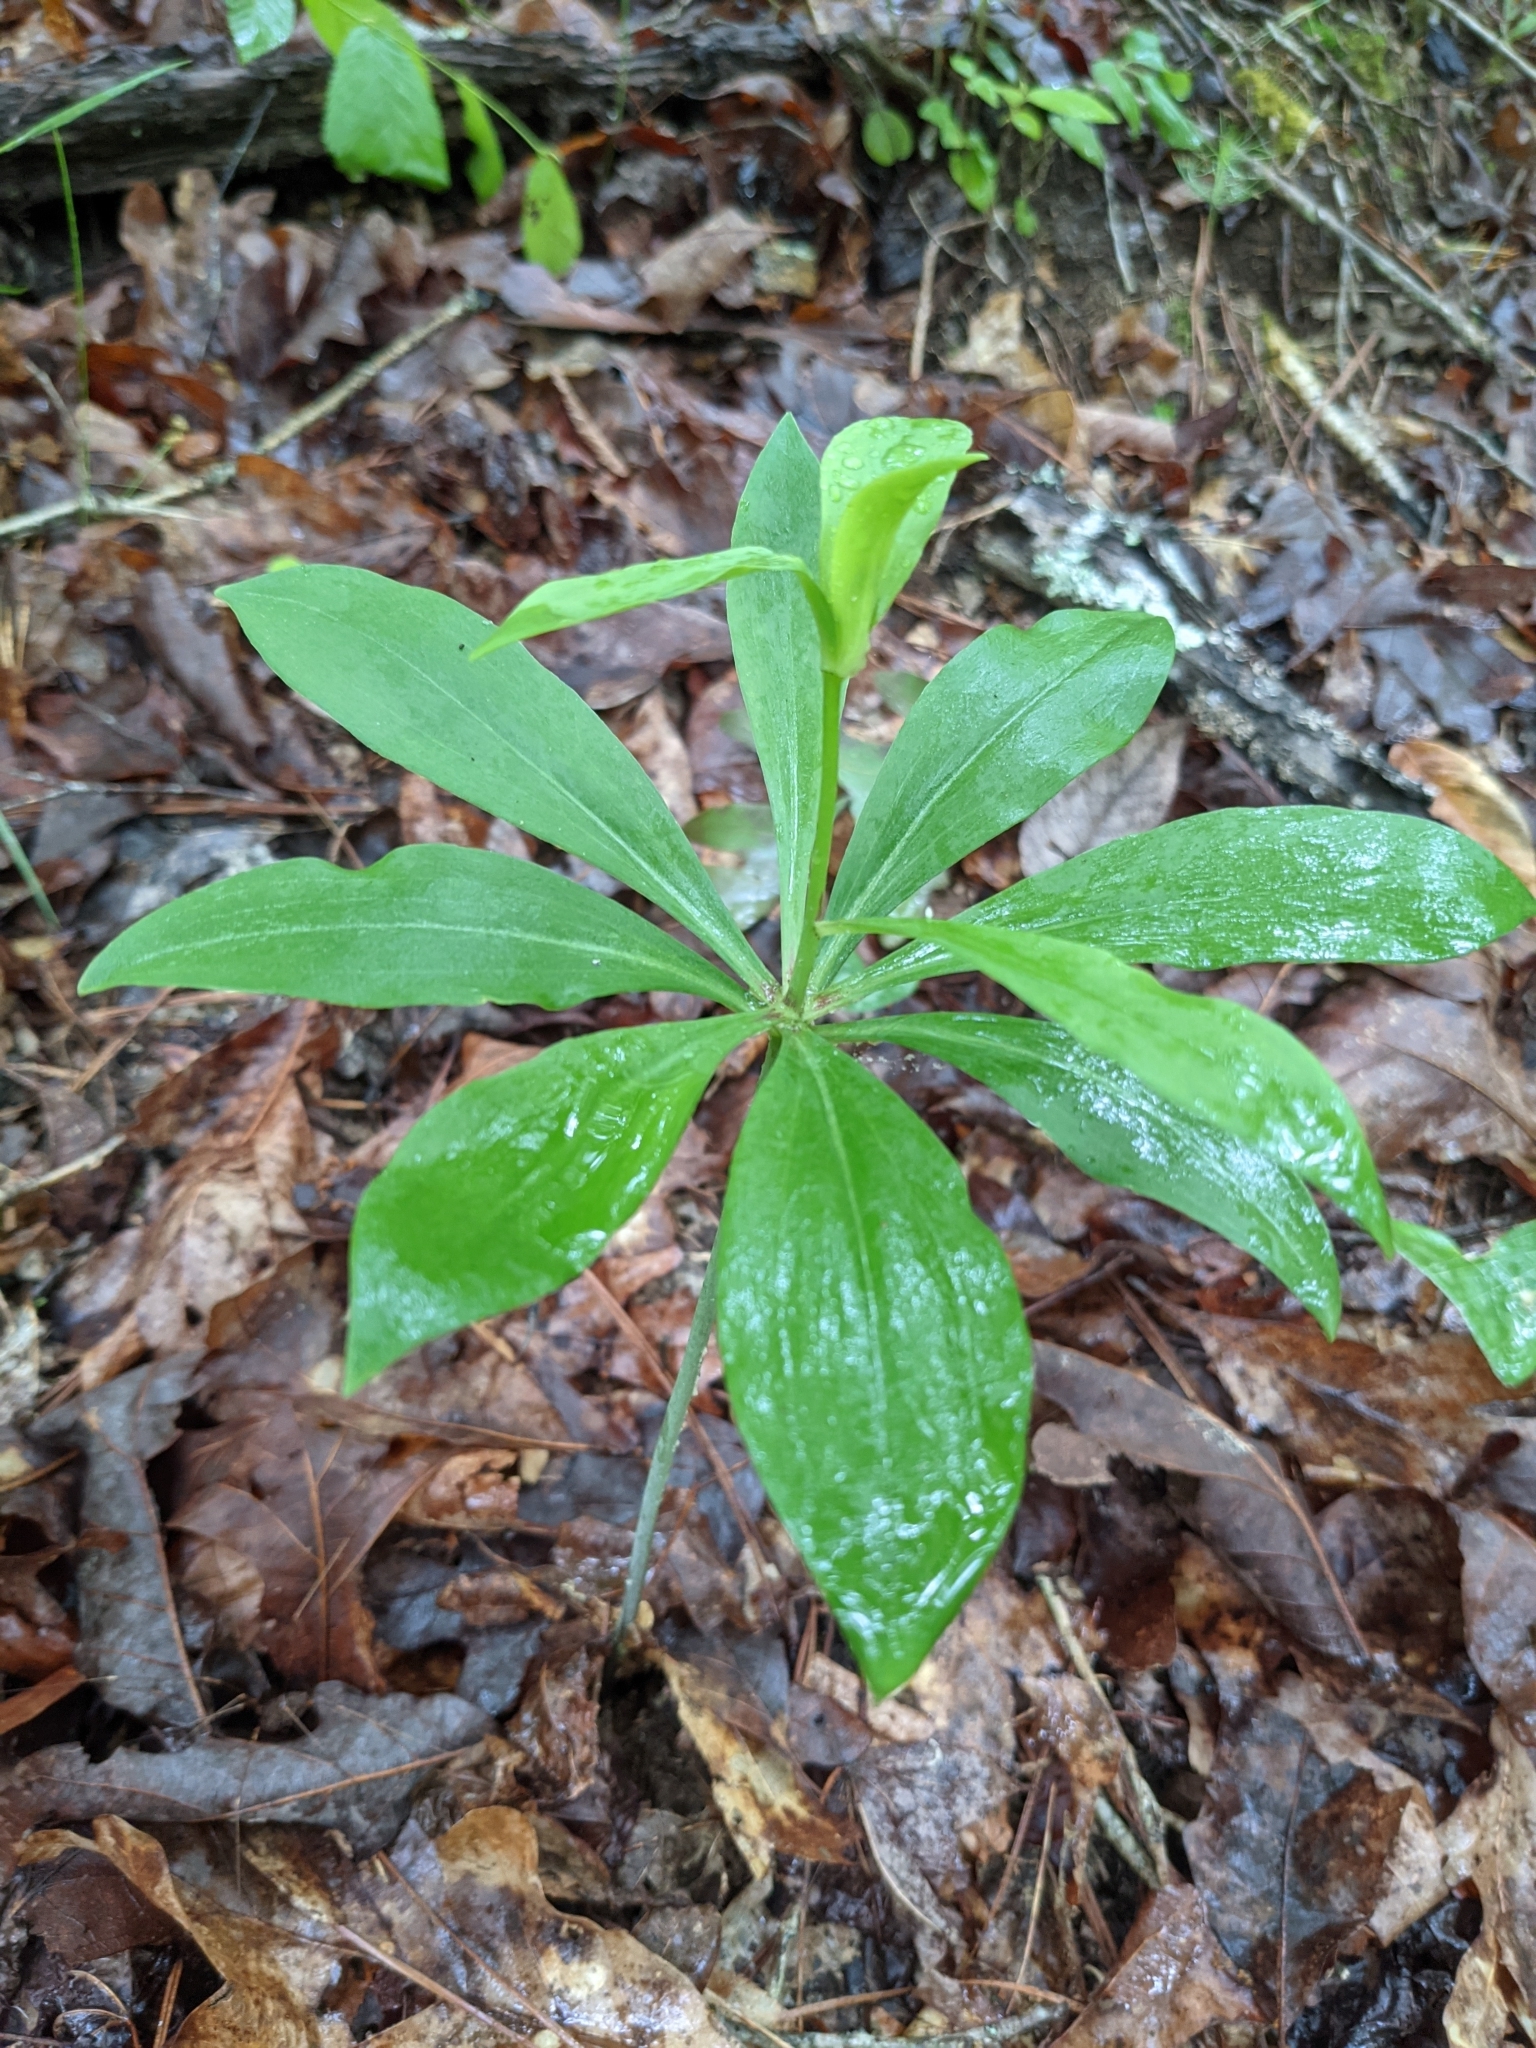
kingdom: Plantae
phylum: Tracheophyta
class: Liliopsida
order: Liliales
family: Liliaceae
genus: Lilium
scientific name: Lilium michauxii
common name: Carolina lily
